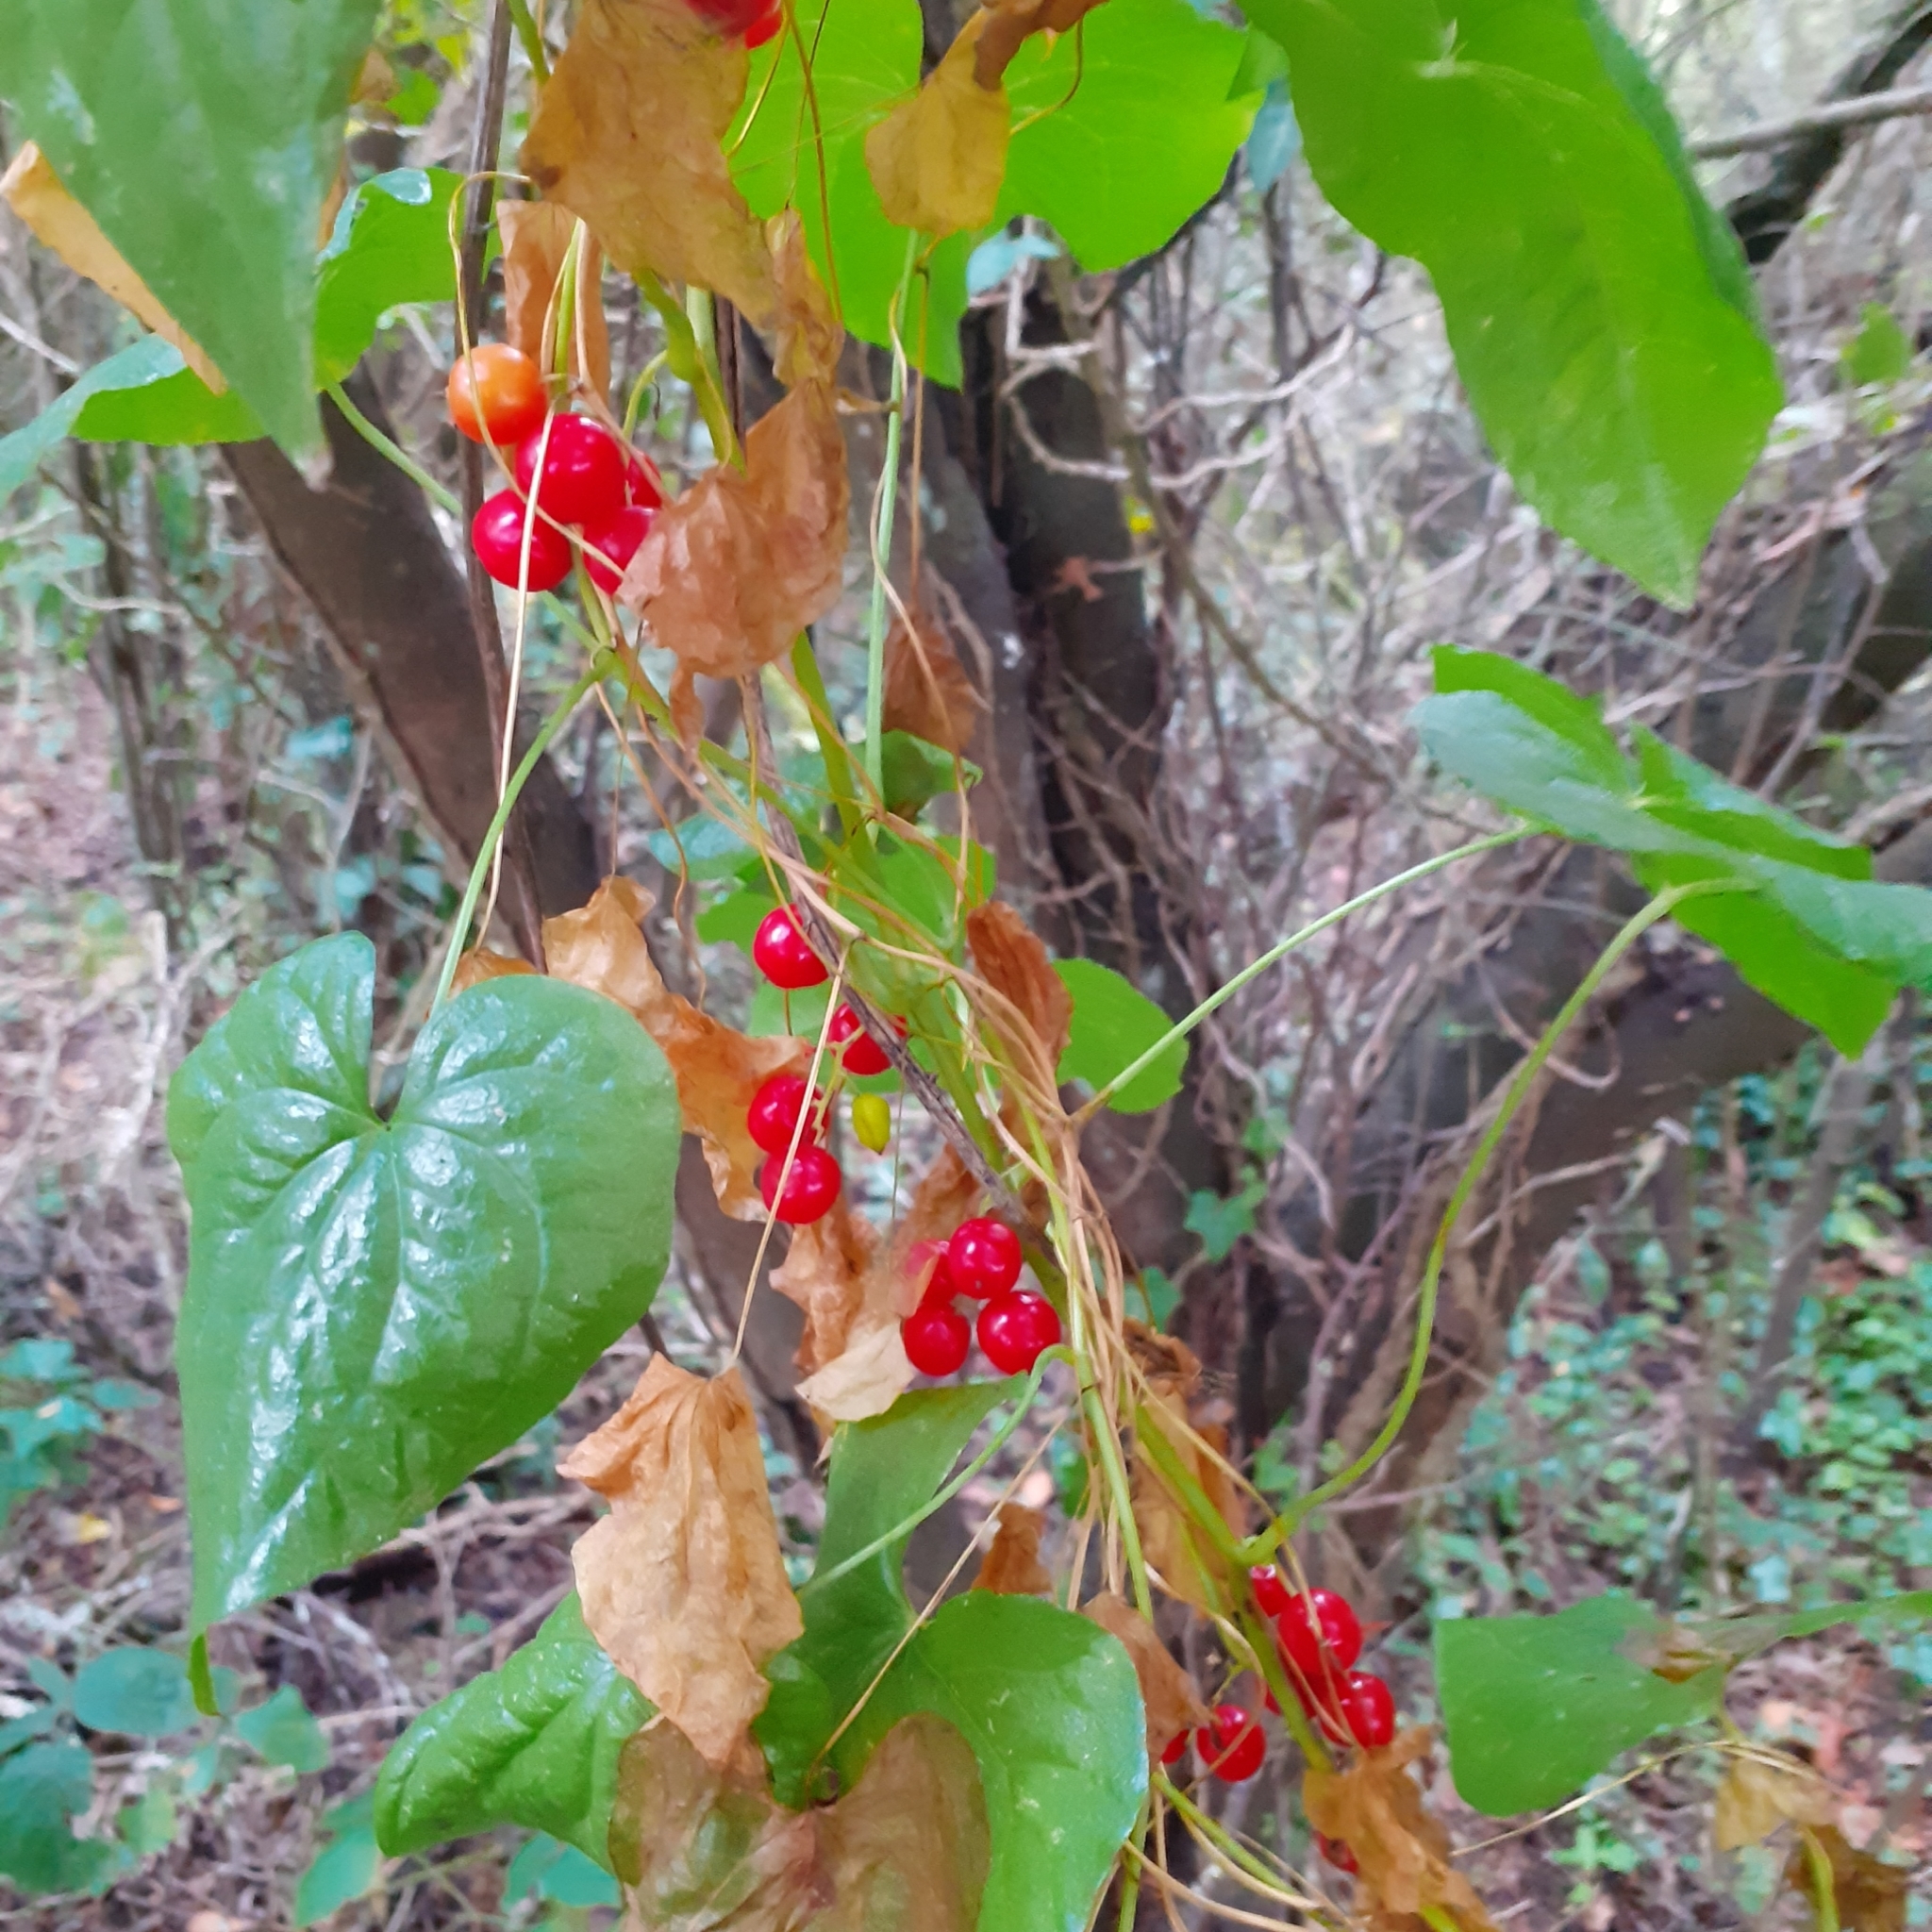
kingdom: Plantae
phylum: Tracheophyta
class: Liliopsida
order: Dioscoreales
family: Dioscoreaceae
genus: Dioscorea
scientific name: Dioscorea communis
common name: Black-bindweed
